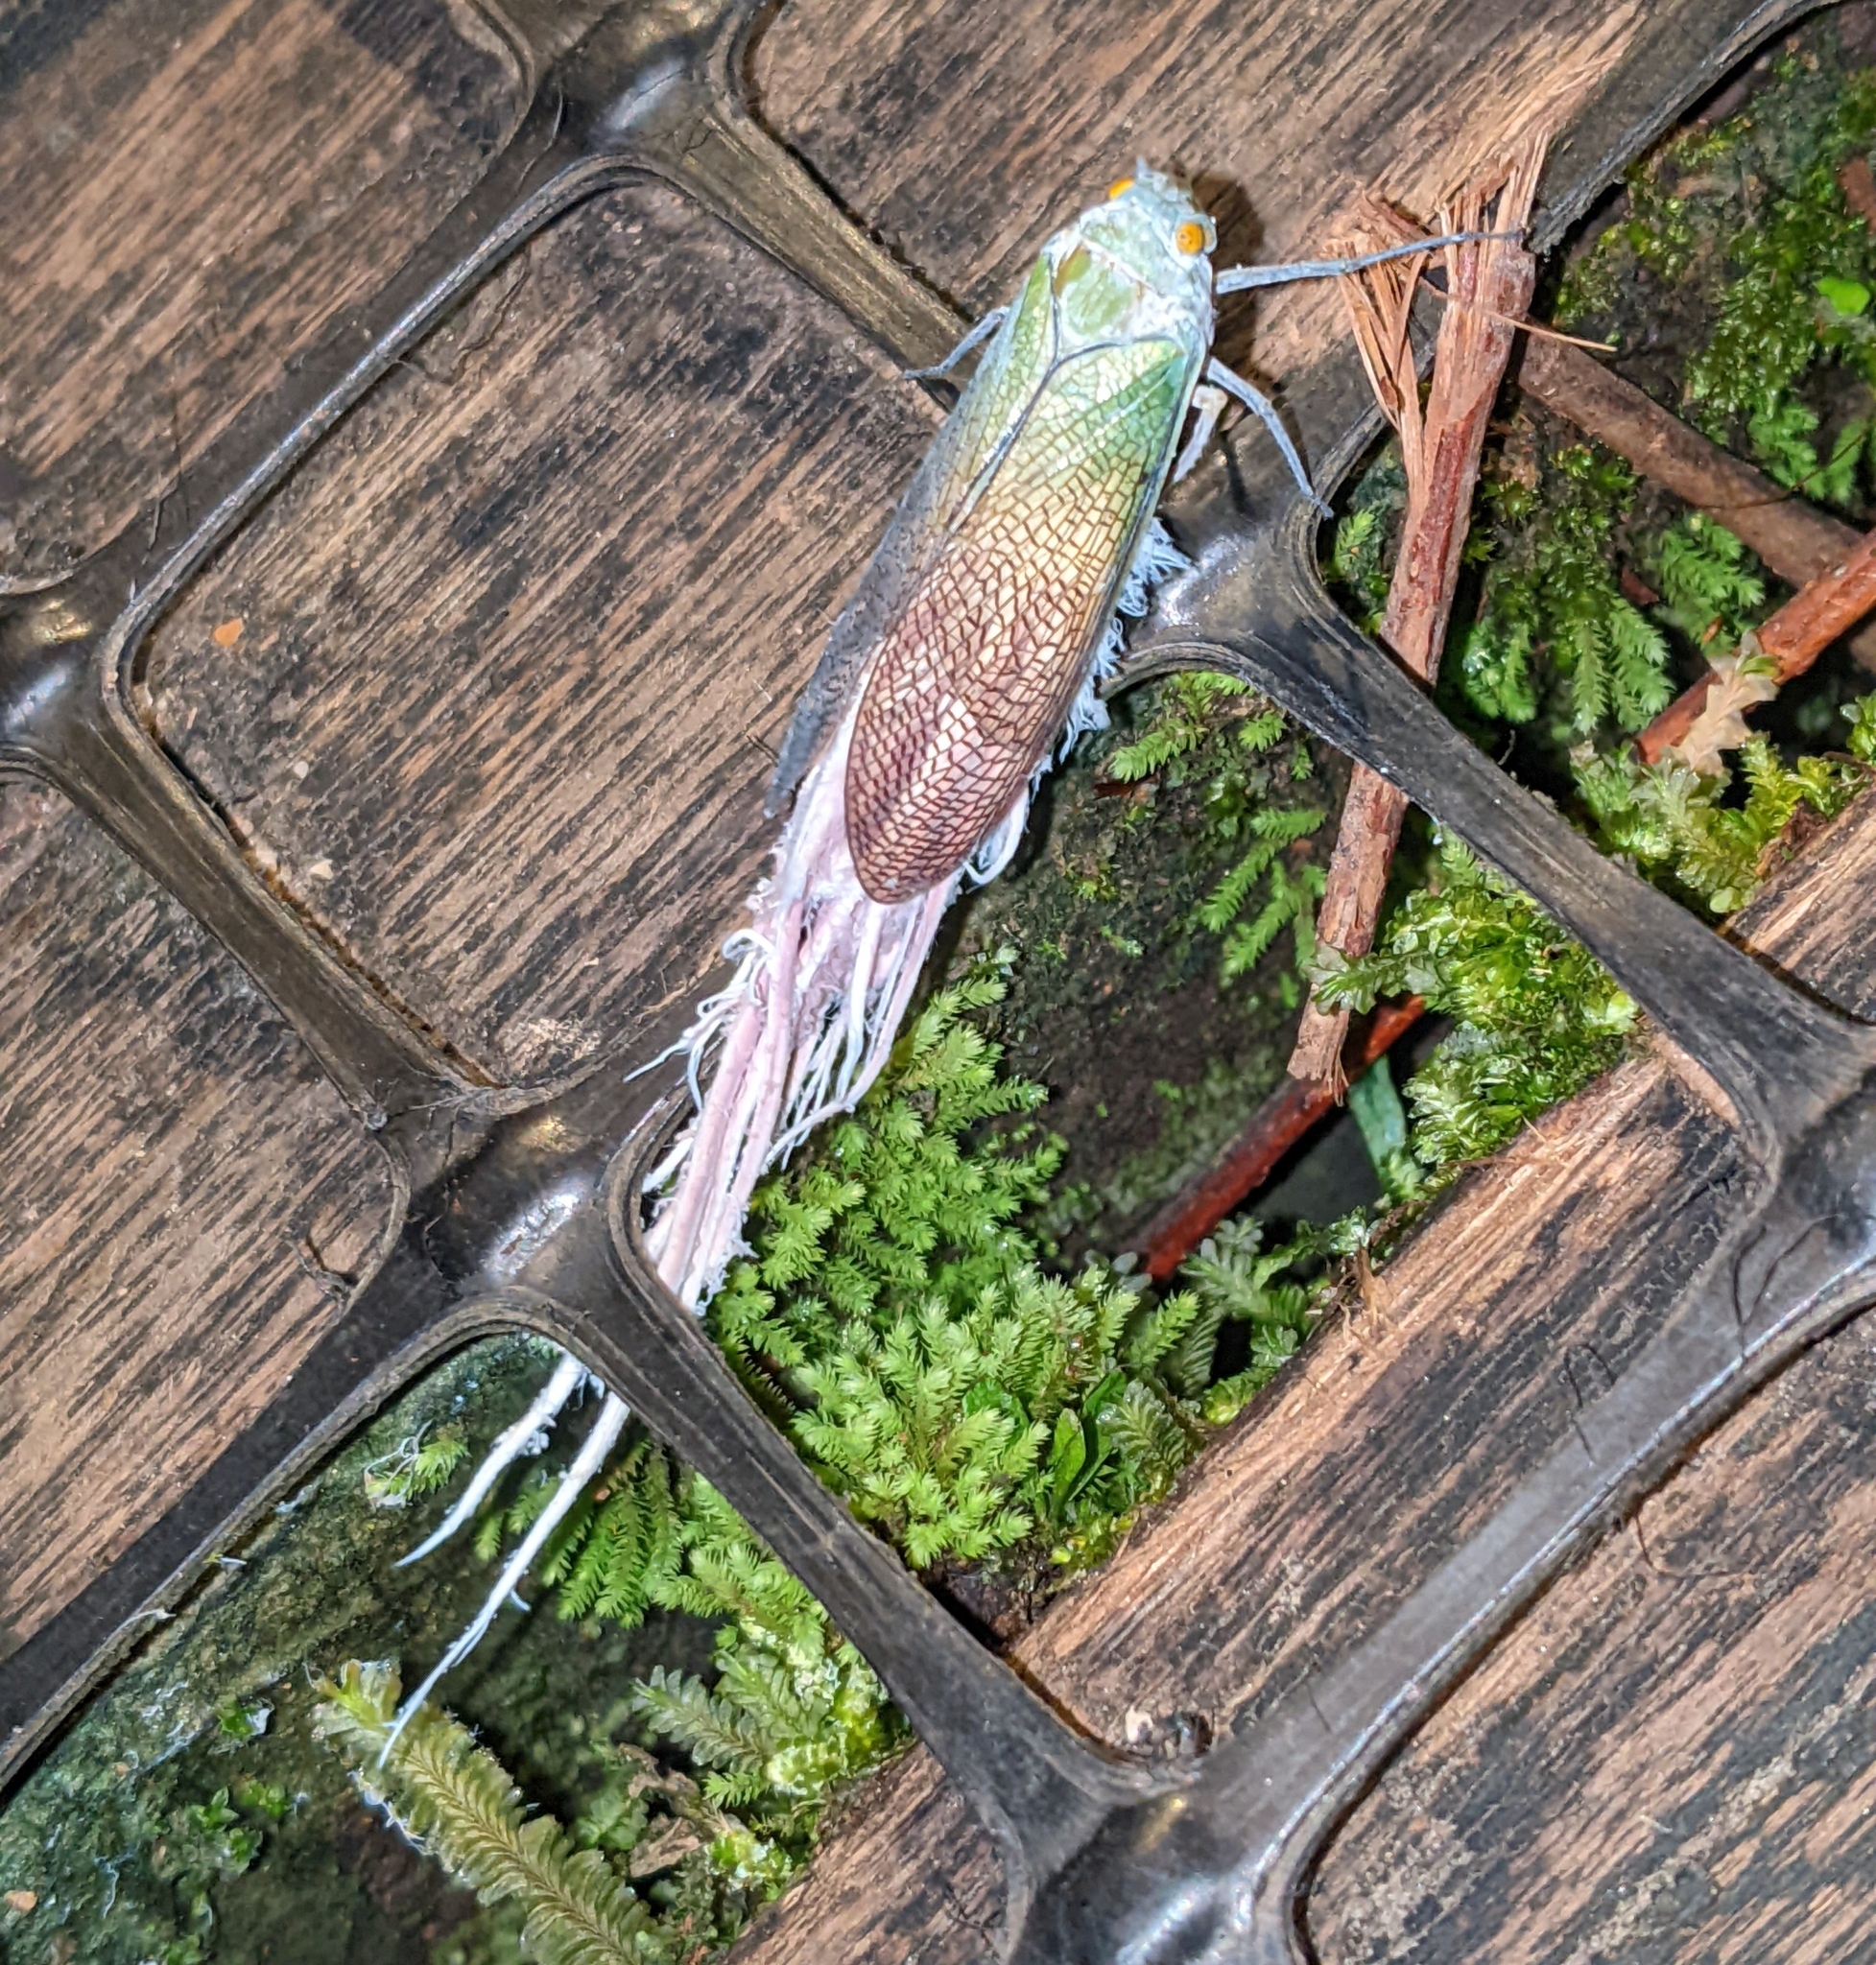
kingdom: Animalia
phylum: Arthropoda
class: Insecta
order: Hemiptera
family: Fulgoridae
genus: Pterodictya
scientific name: Pterodictya reticularis
